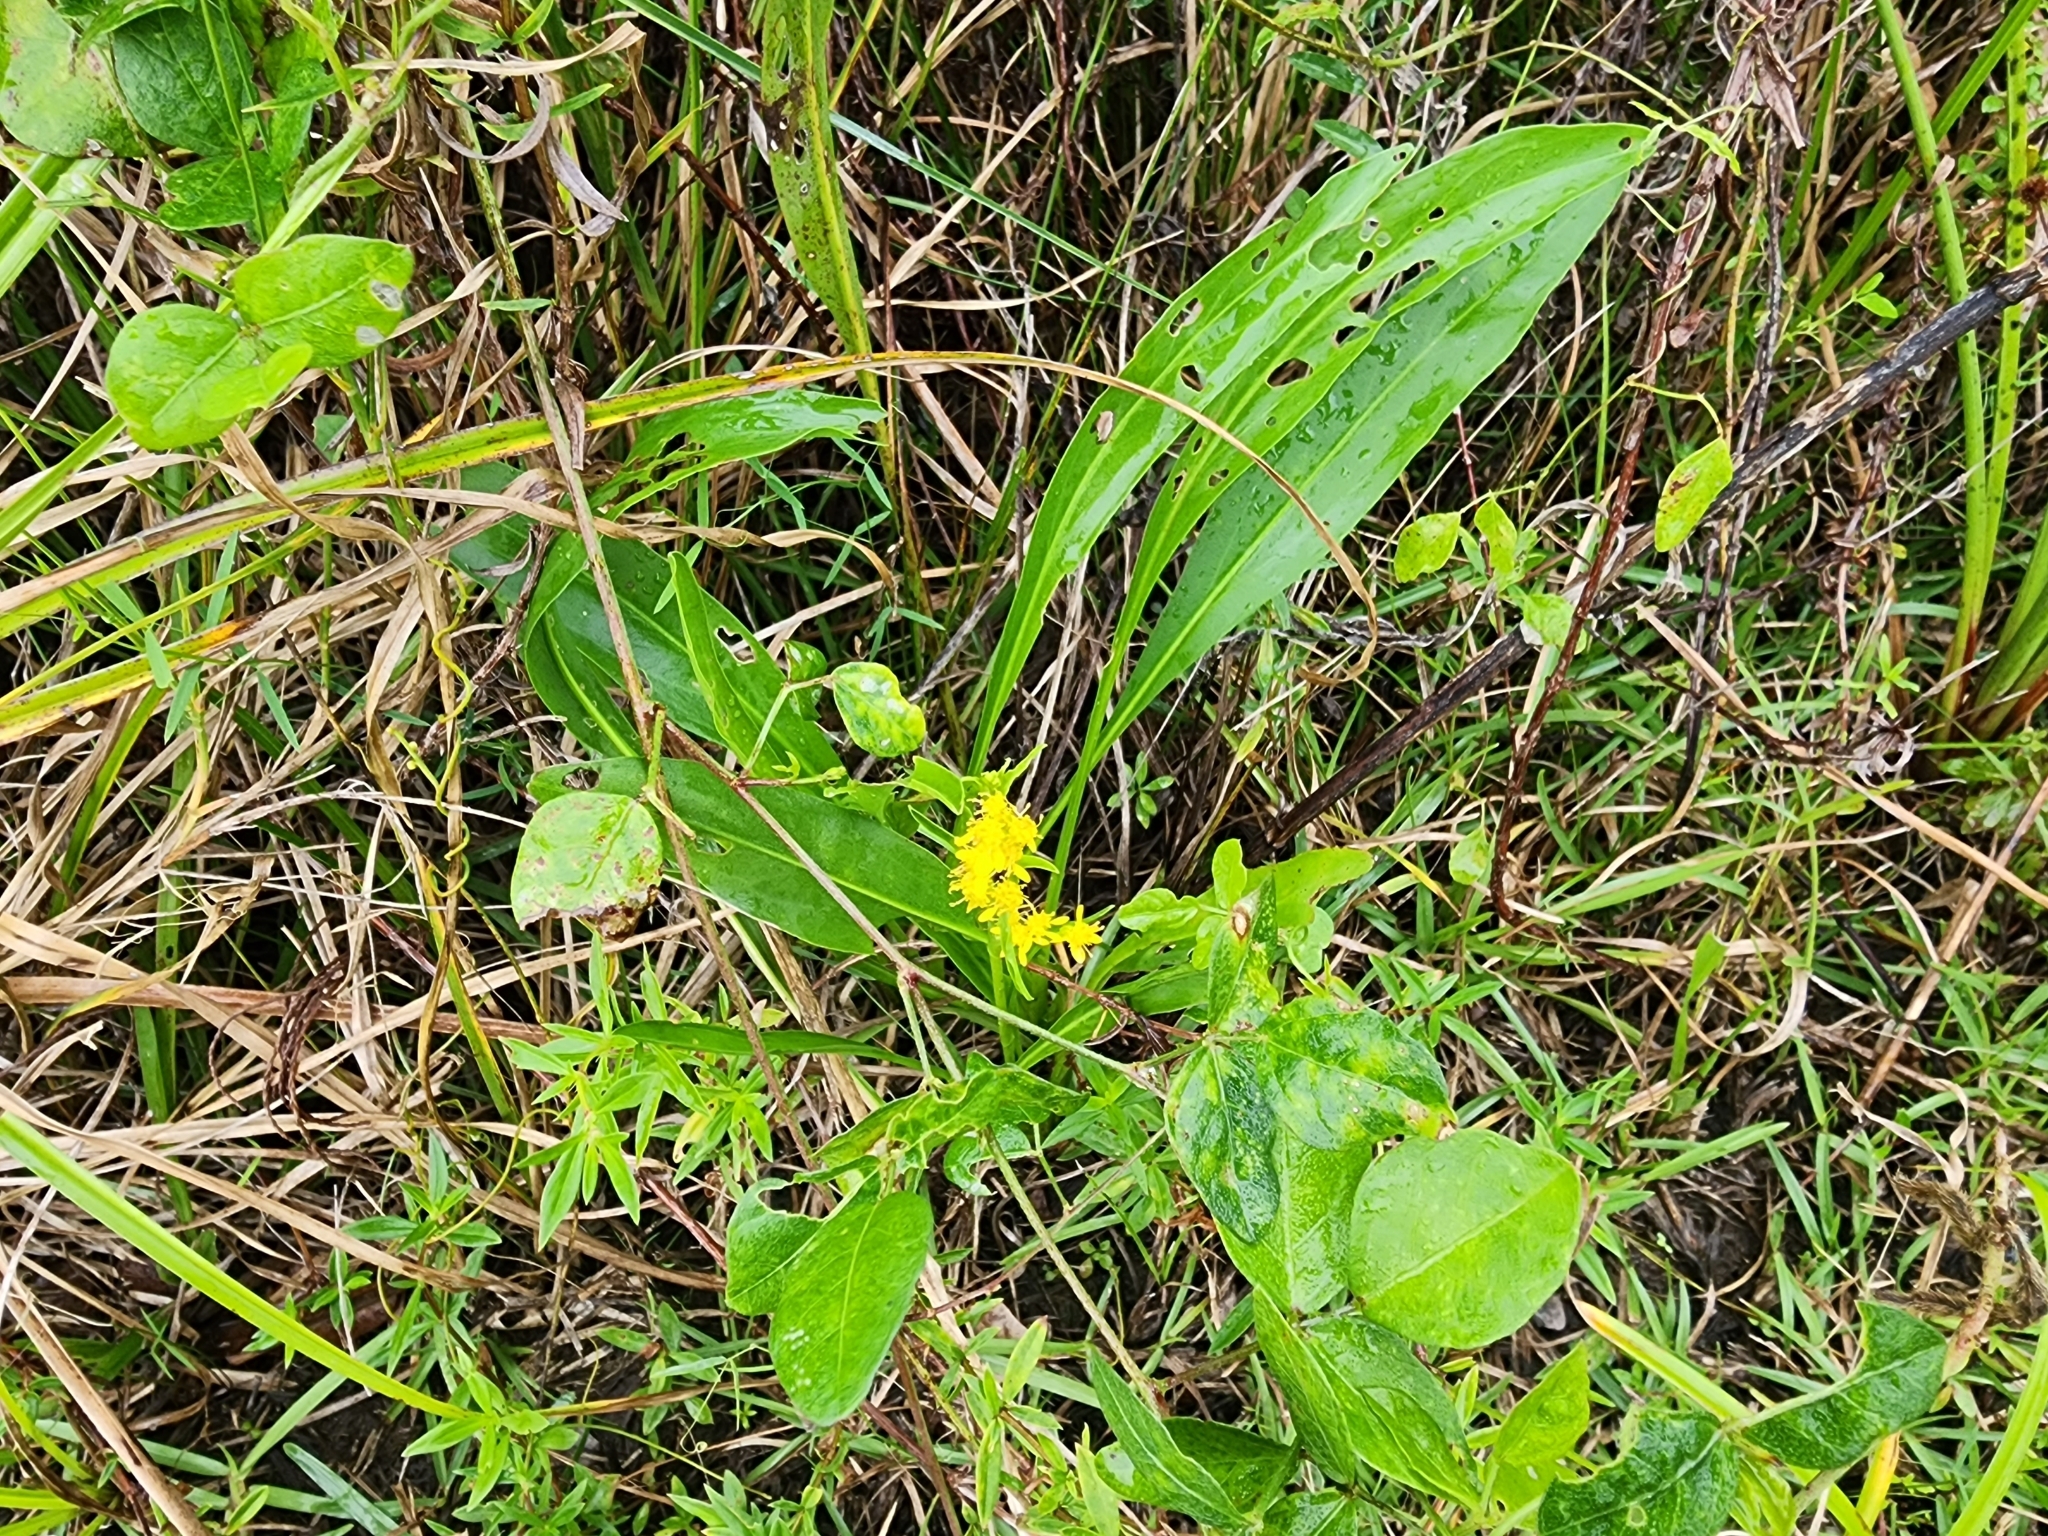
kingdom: Plantae
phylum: Tracheophyta
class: Magnoliopsida
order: Asterales
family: Asteraceae
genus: Solidago
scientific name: Solidago mexicana
